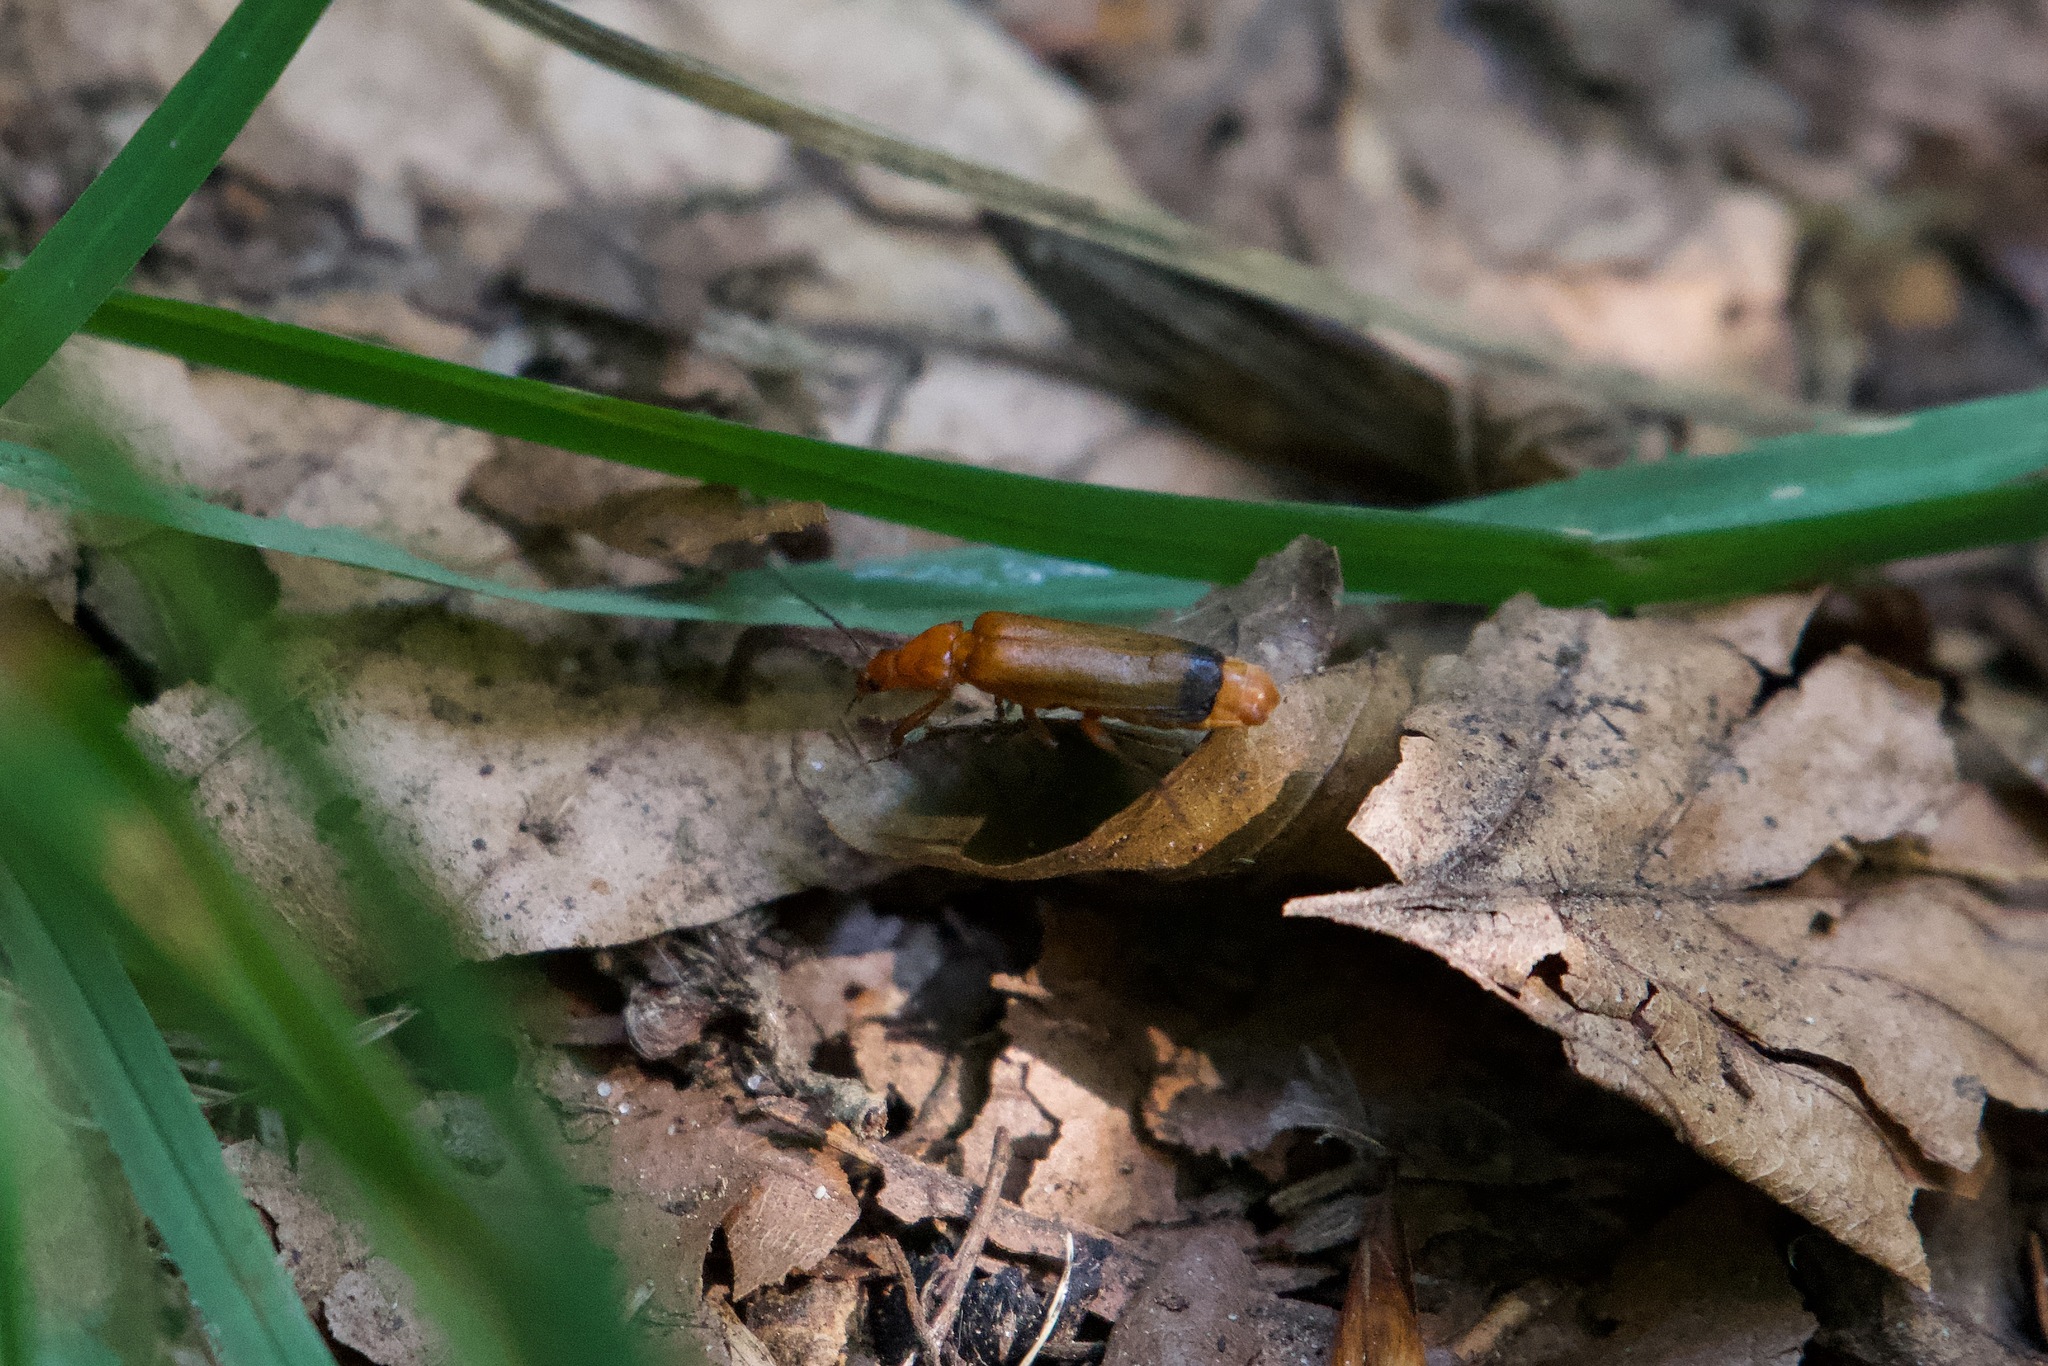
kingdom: Animalia
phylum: Arthropoda
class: Insecta
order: Coleoptera
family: Cantharidae
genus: Rhagonycha
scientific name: Rhagonycha fulva
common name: Common red soldier beetle
